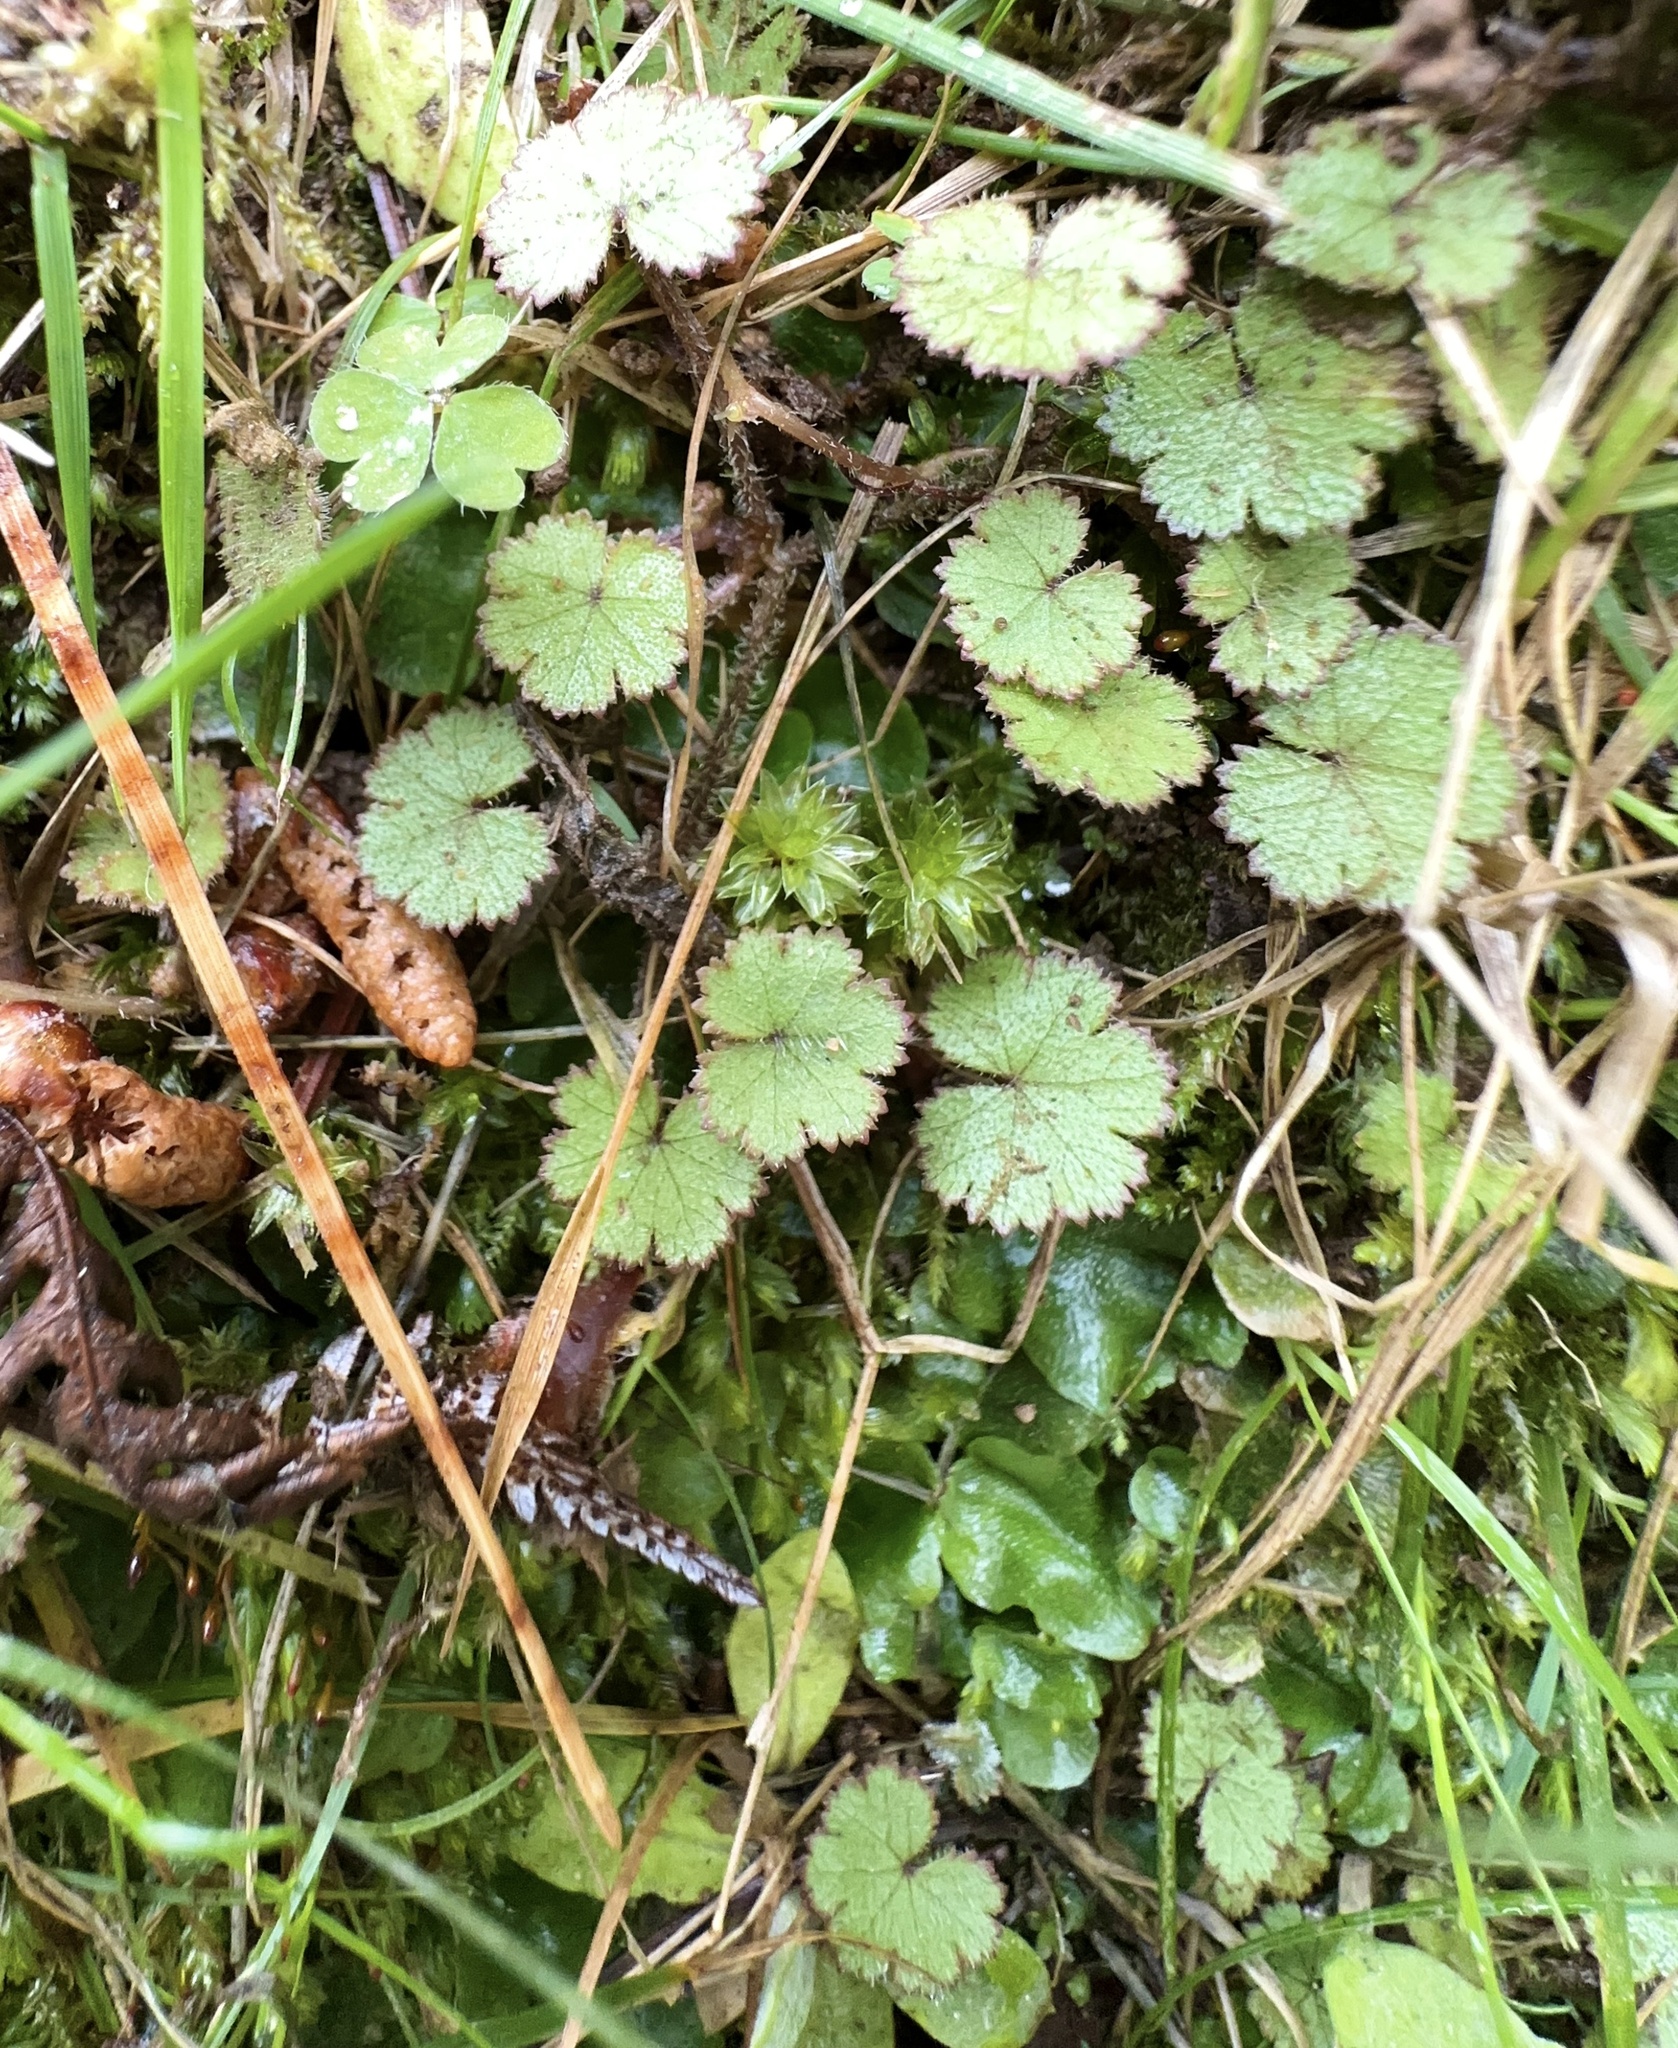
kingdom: Plantae
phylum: Tracheophyta
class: Magnoliopsida
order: Apiales
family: Araliaceae
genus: Hydrocotyle
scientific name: Hydrocotyle moschata
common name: Hairy pennywort
